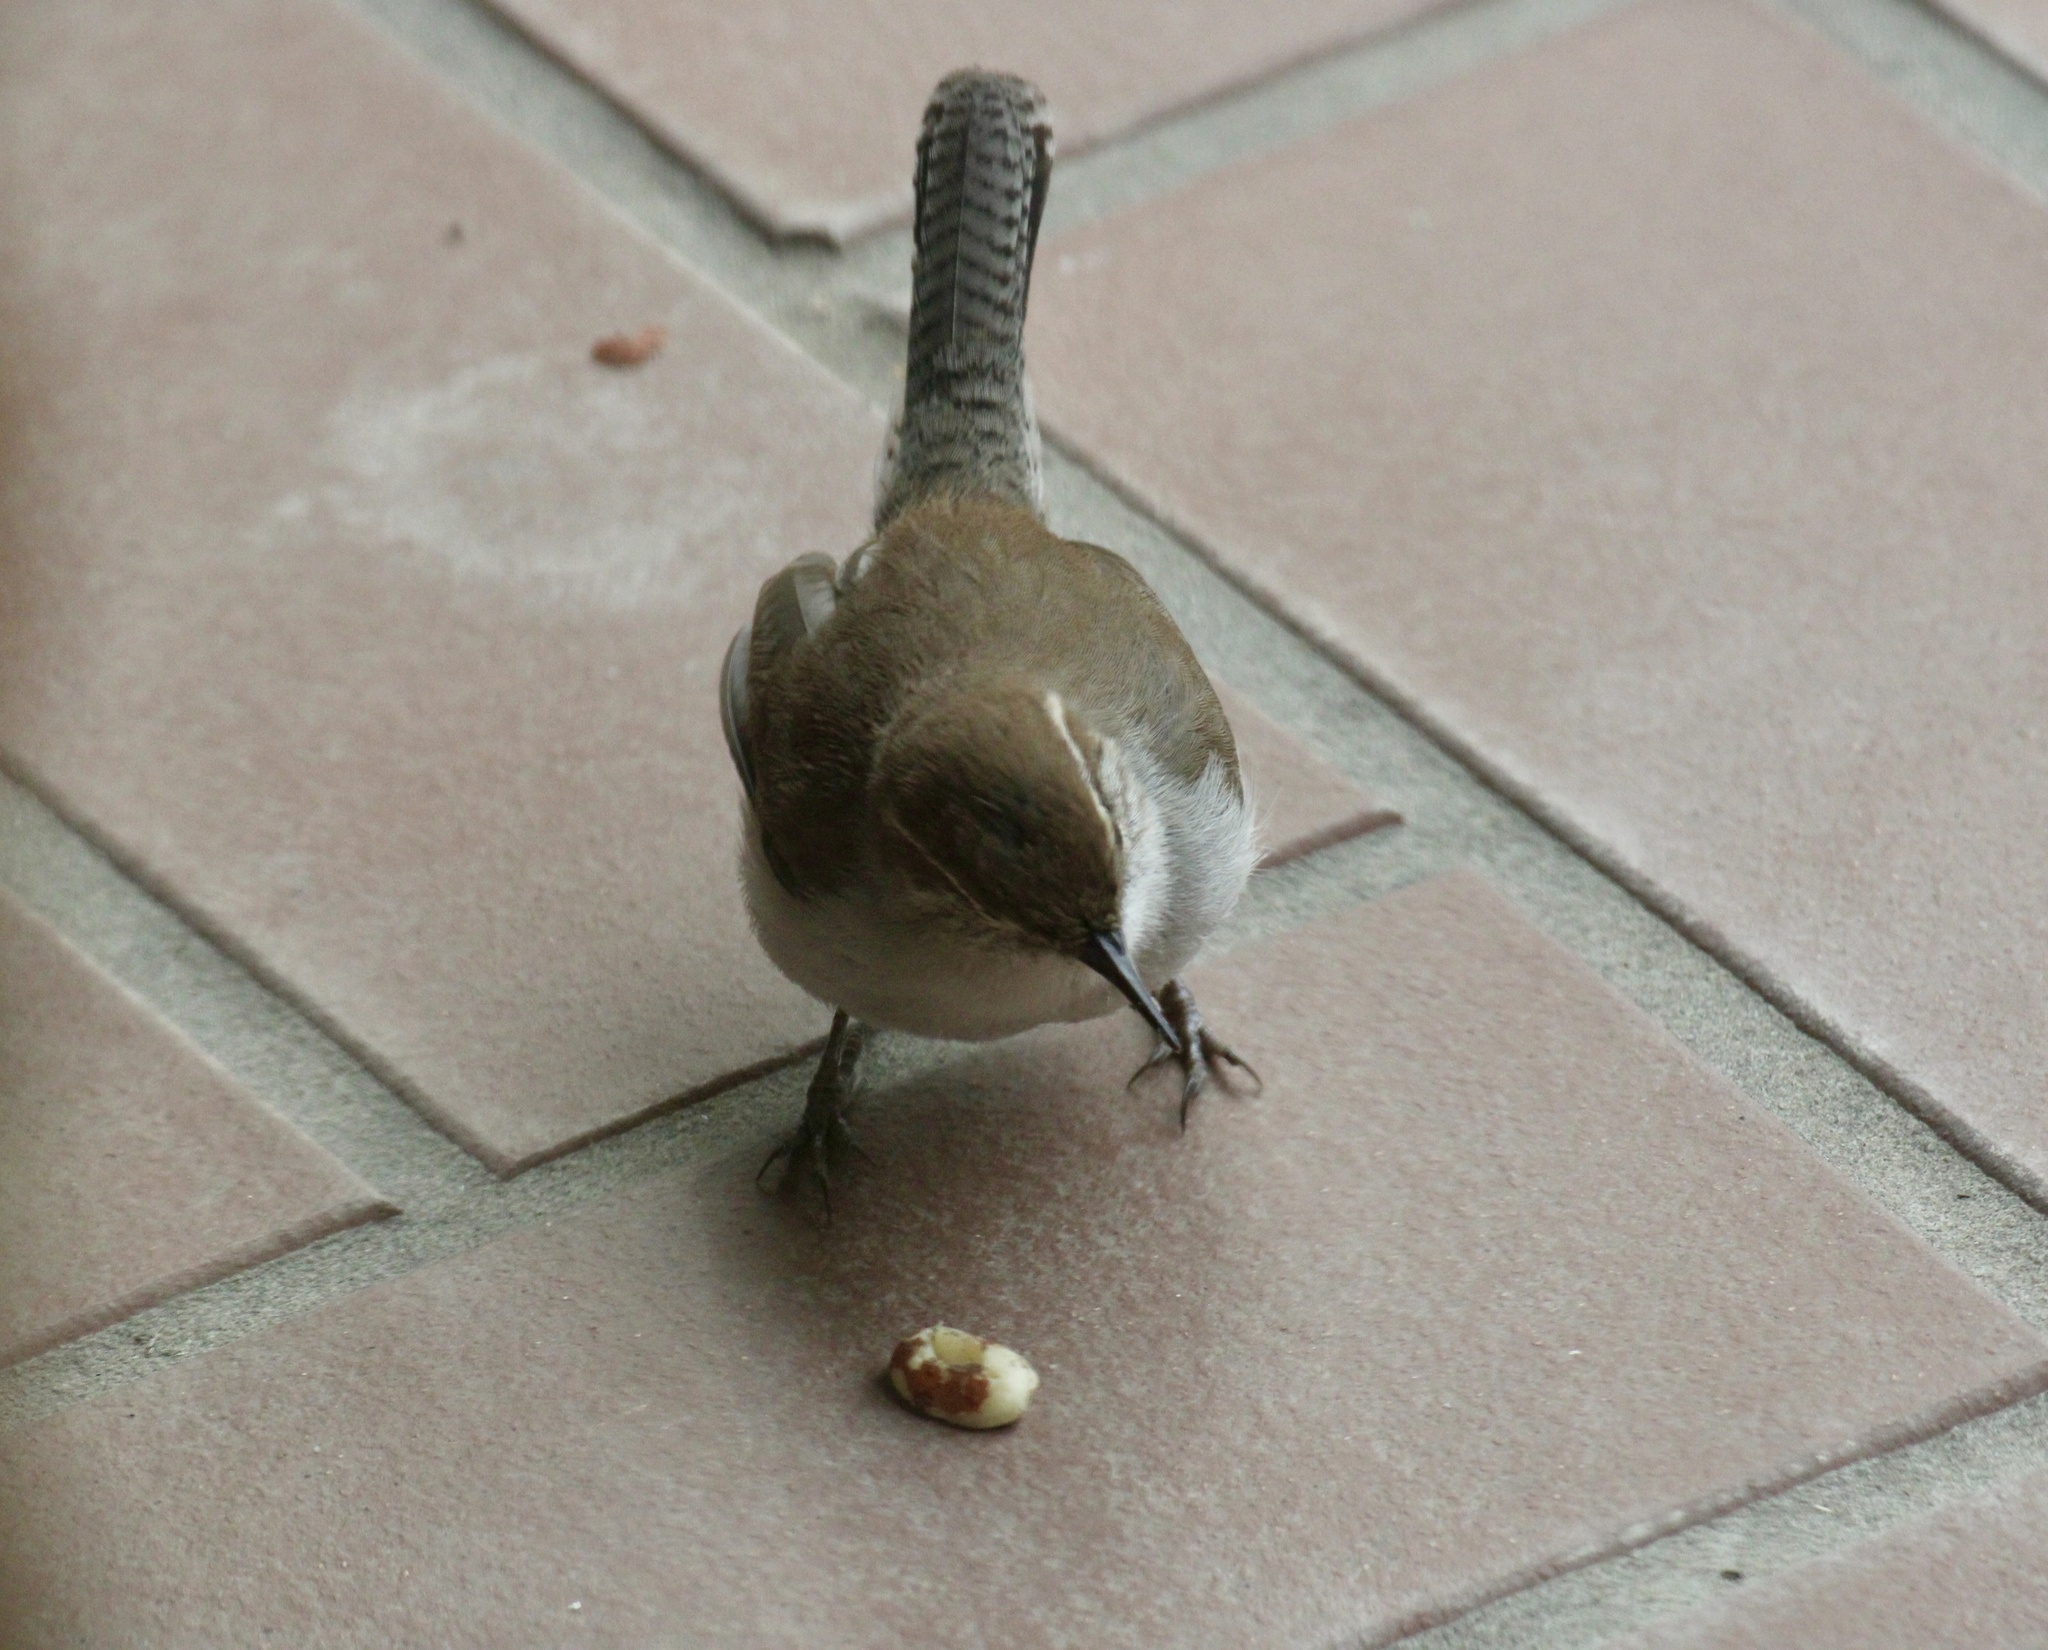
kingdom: Animalia
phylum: Chordata
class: Aves
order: Passeriformes
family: Troglodytidae
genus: Thryomanes
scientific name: Thryomanes bewickii
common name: Bewick's wren
